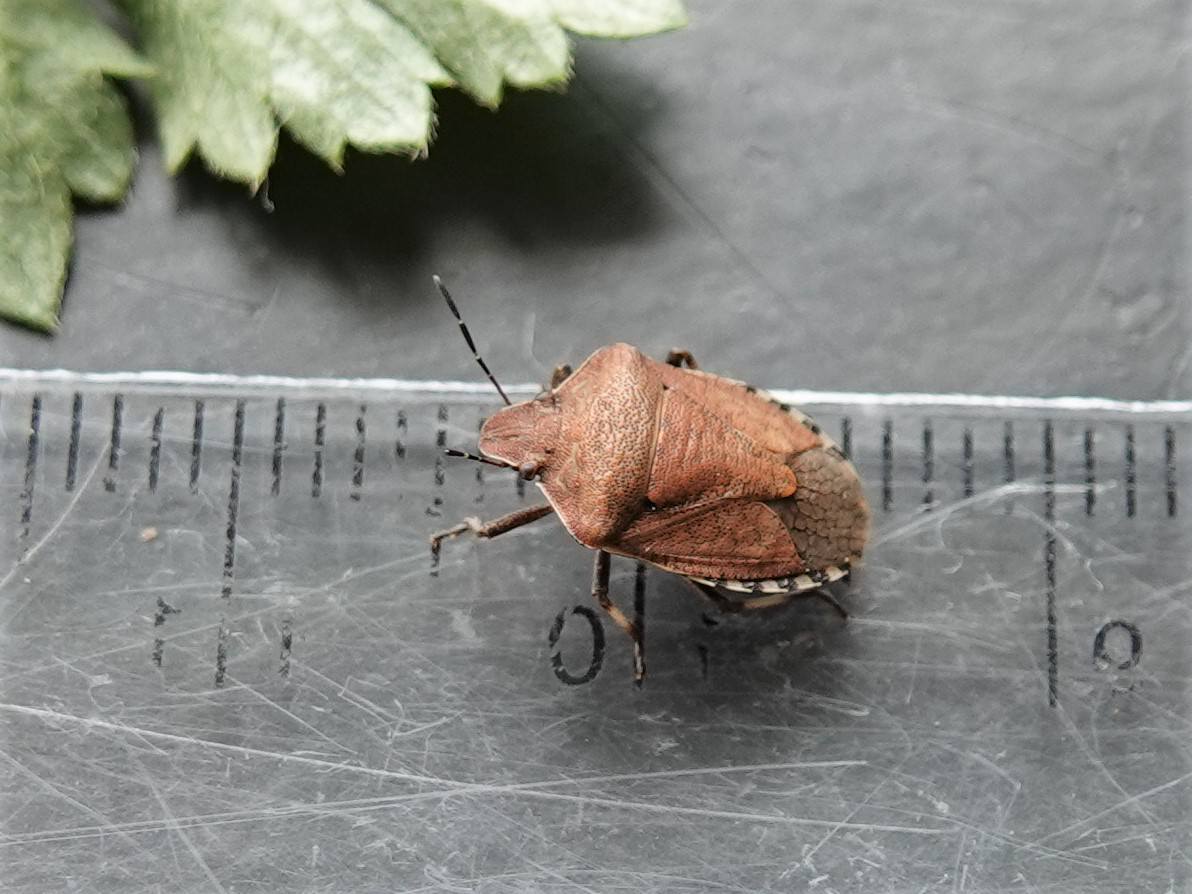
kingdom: Animalia
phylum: Arthropoda
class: Insecta
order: Hemiptera
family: Pentatomidae
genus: Dictyotus
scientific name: Dictyotus caenosus
